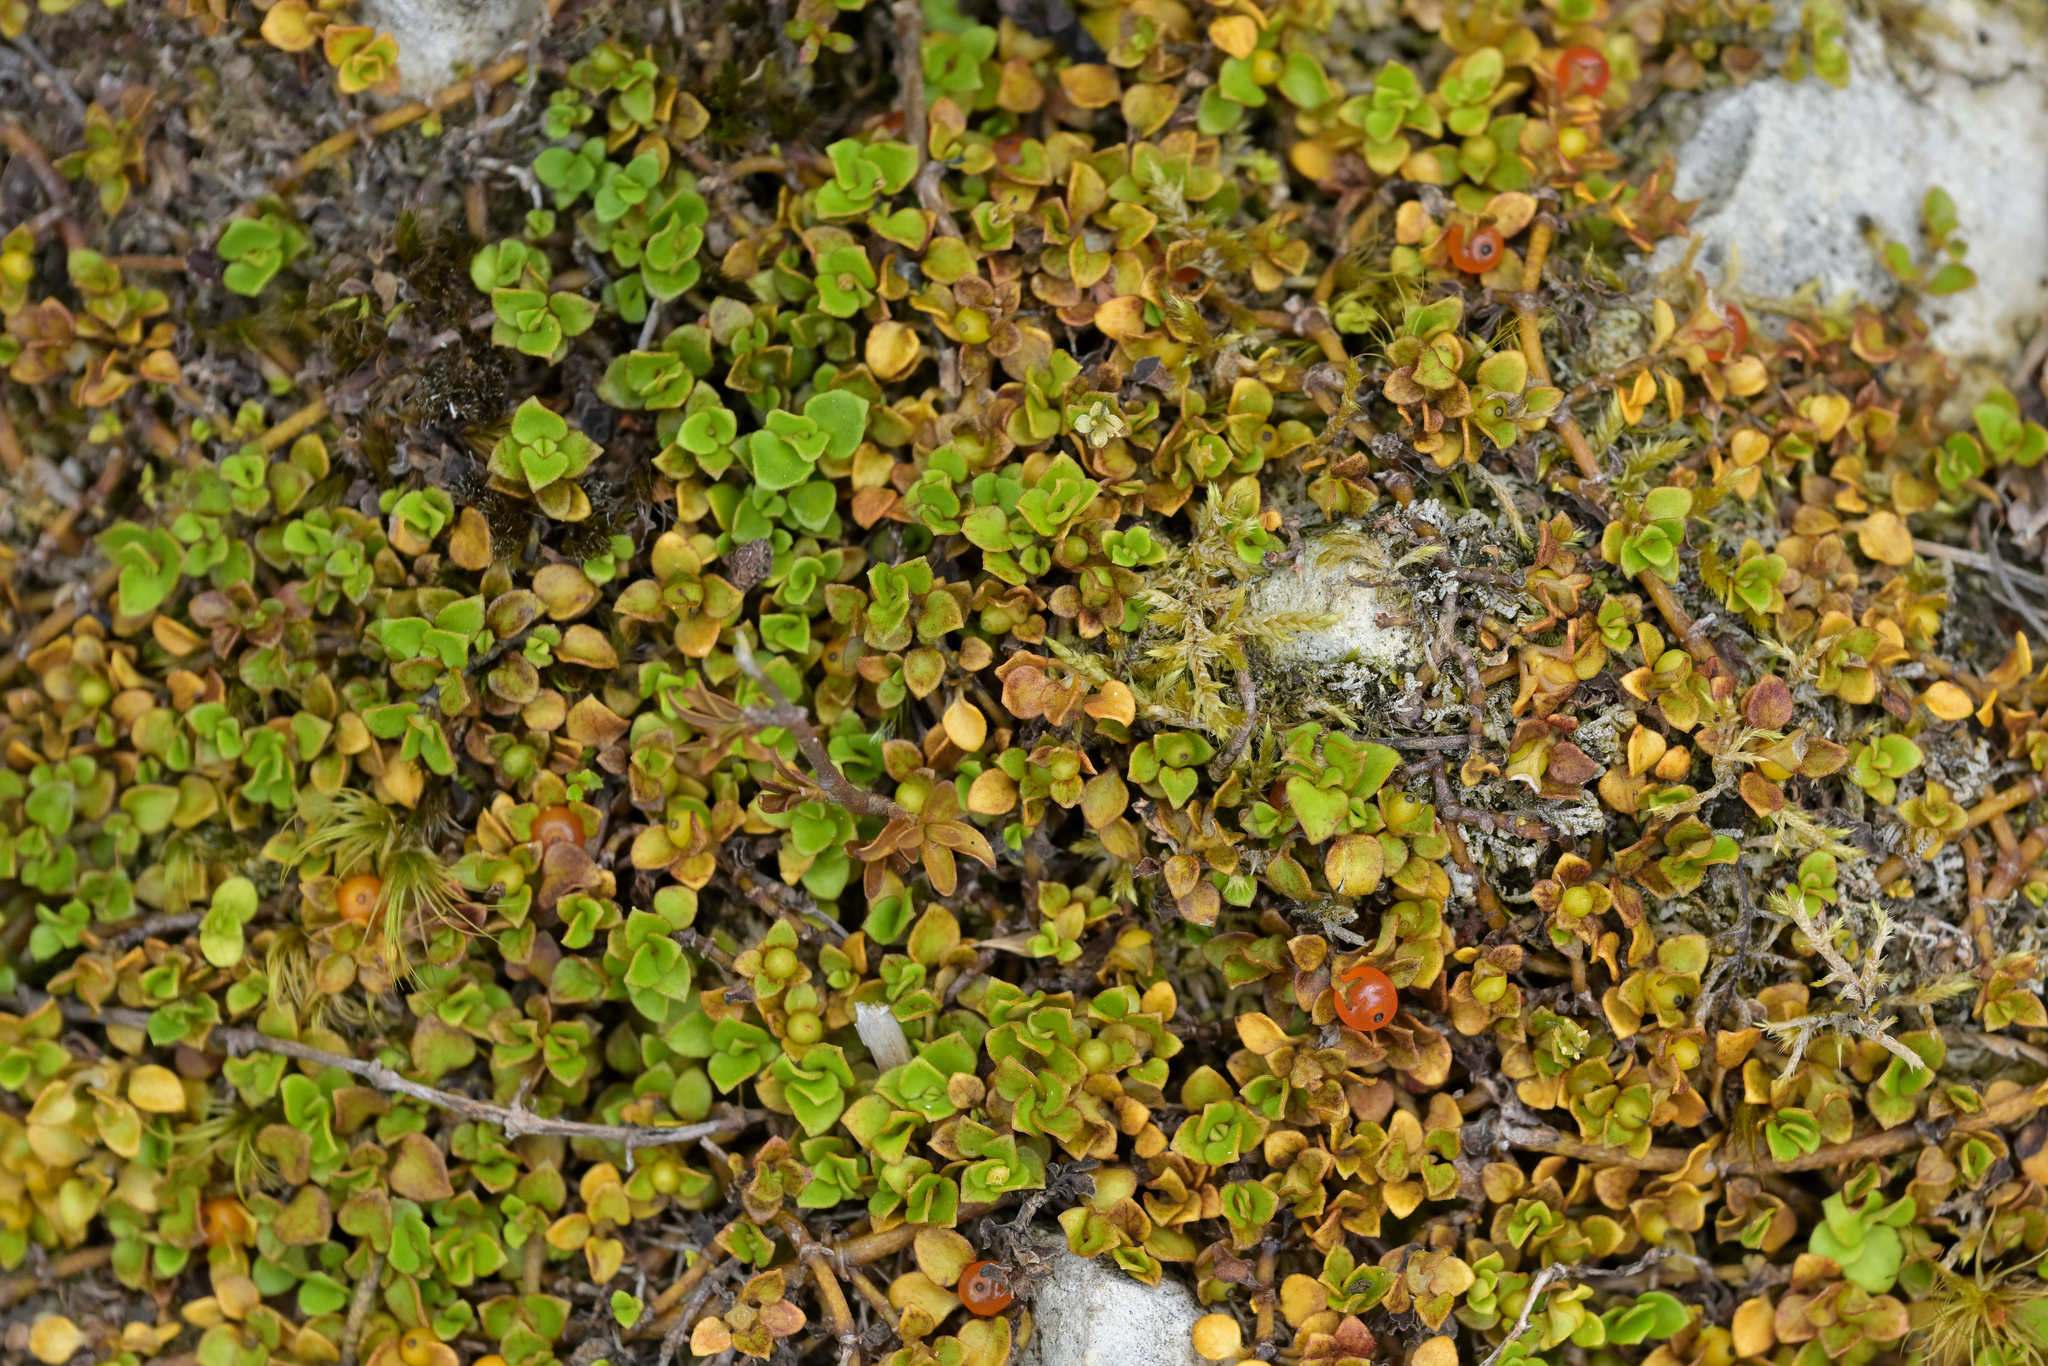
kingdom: Plantae
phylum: Tracheophyta
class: Magnoliopsida
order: Gentianales
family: Rubiaceae
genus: Nertera
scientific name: Nertera granadensis
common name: Beadplant
